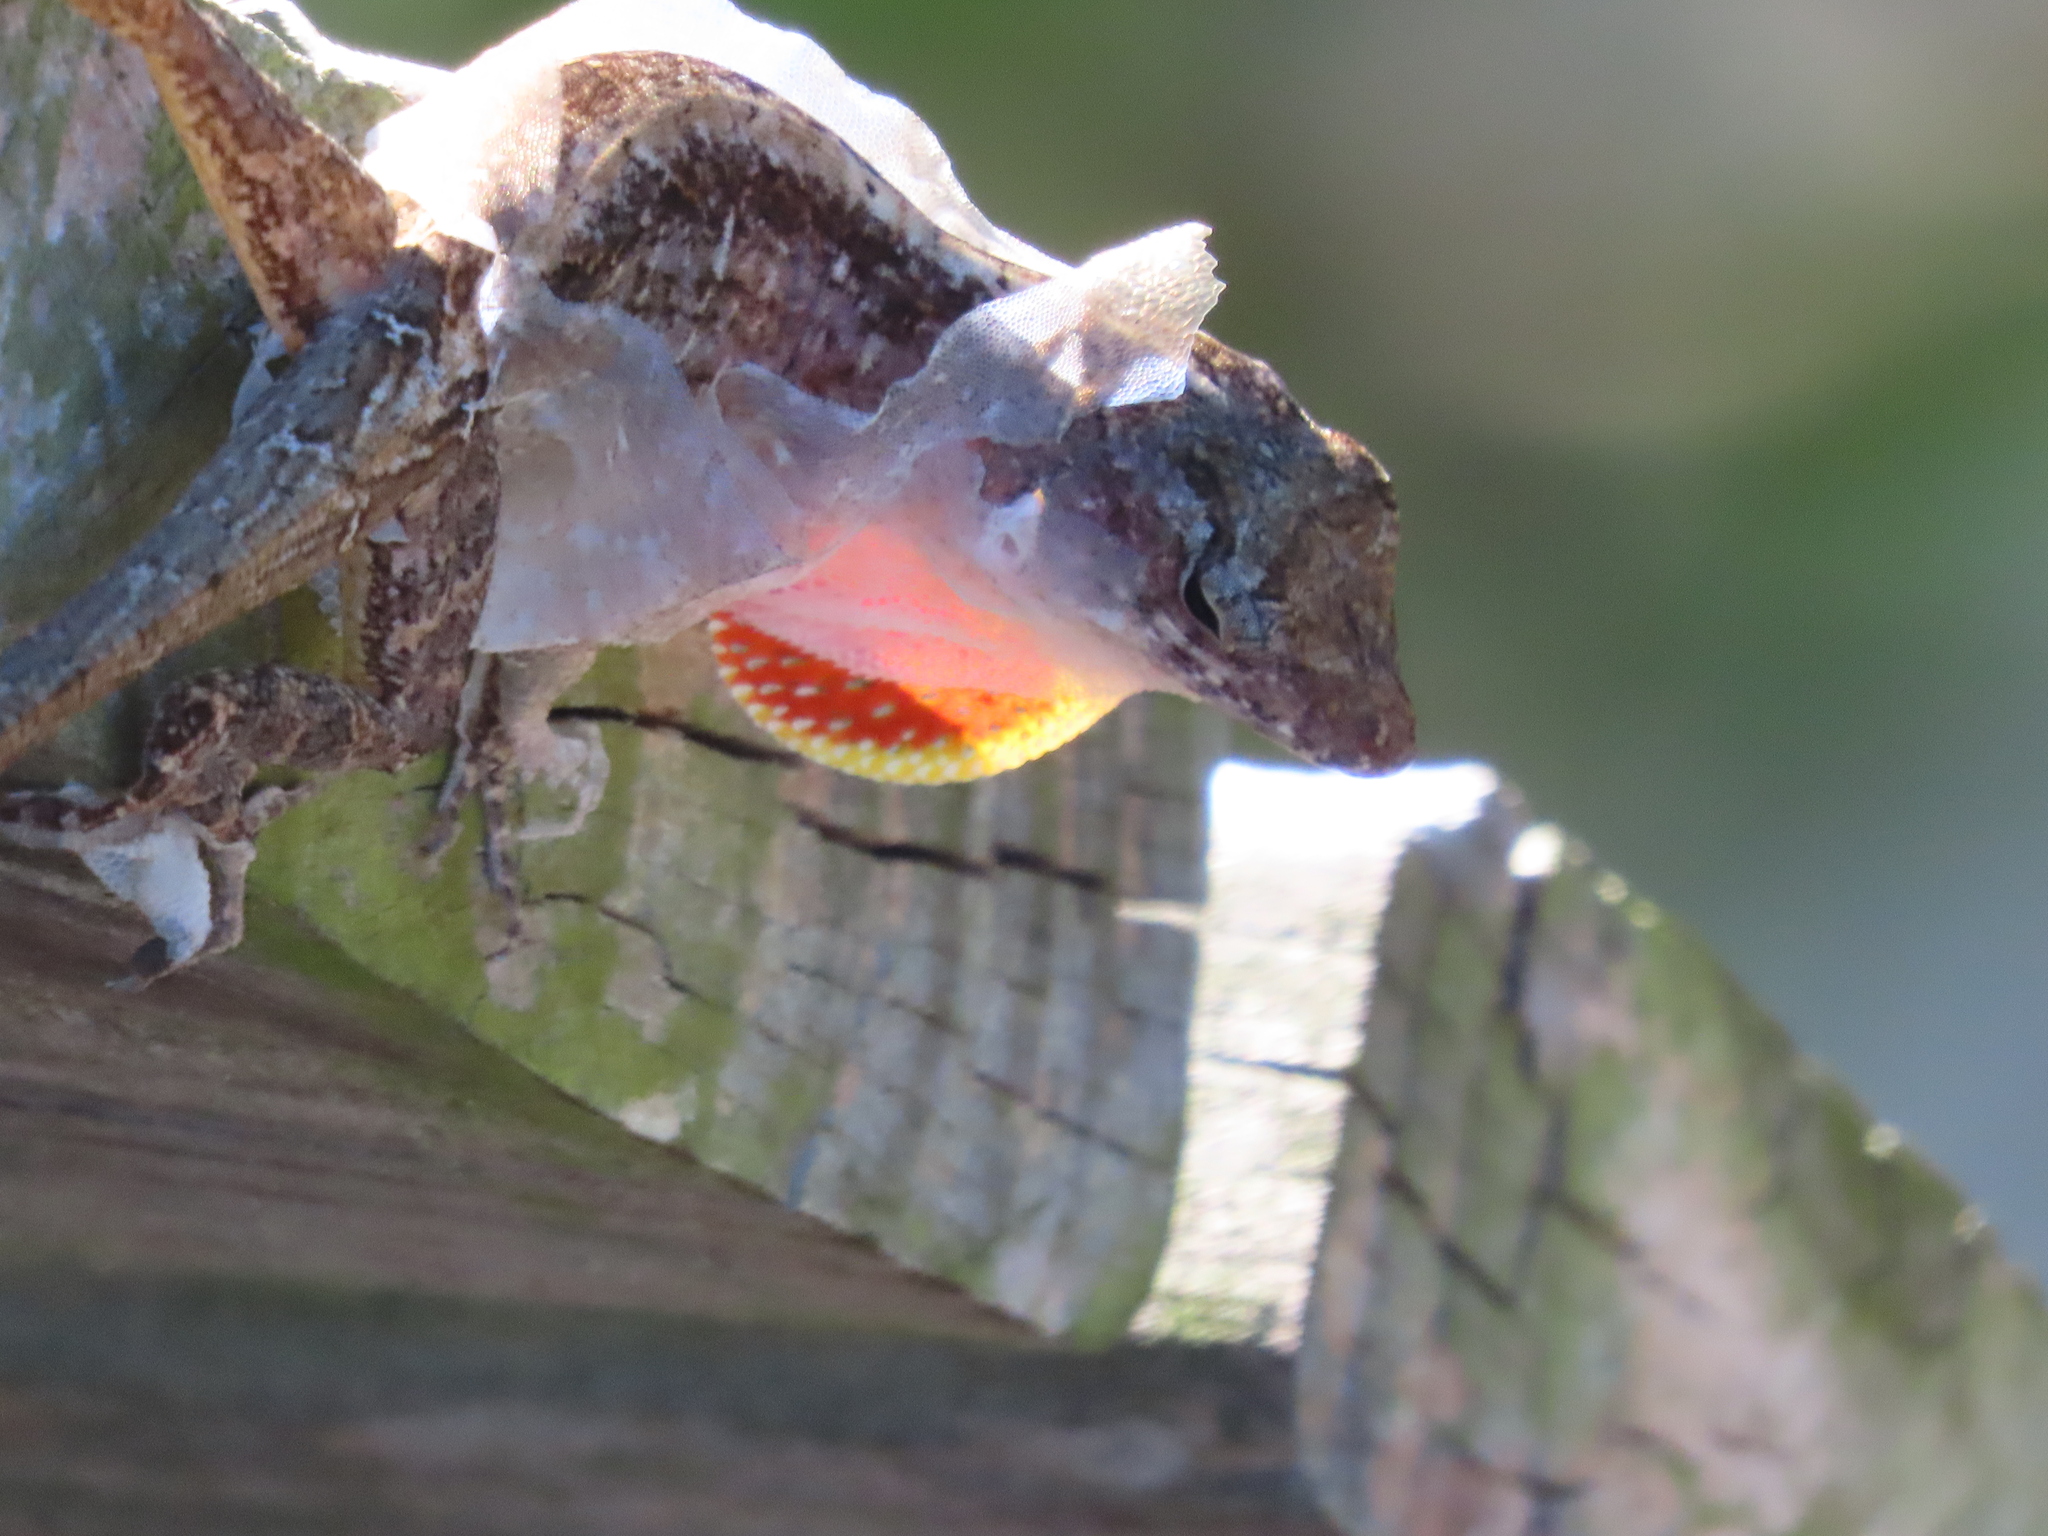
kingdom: Animalia
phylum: Chordata
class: Squamata
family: Dactyloidae
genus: Anolis
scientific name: Anolis sagrei
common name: Brown anole
